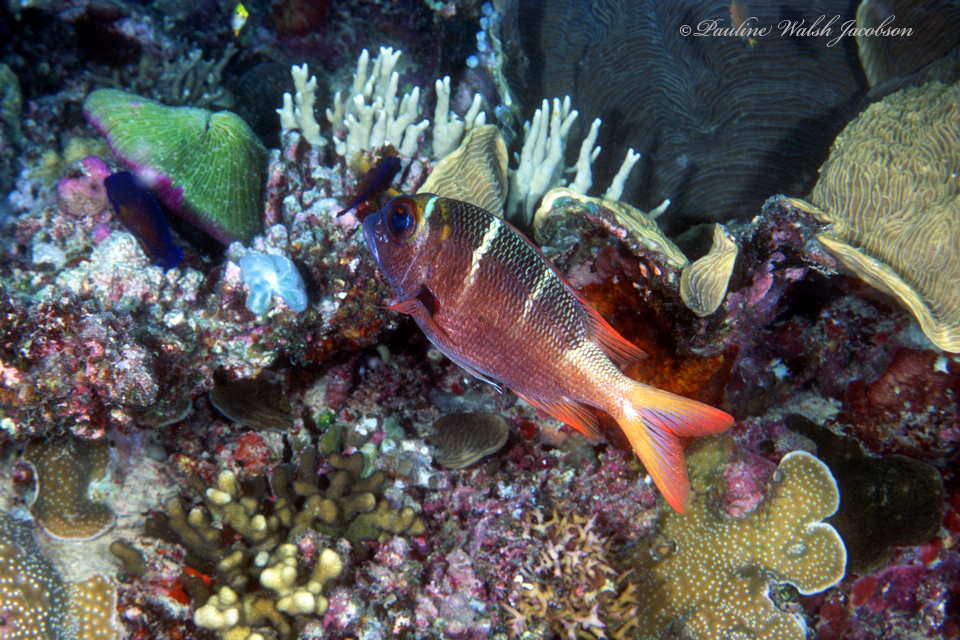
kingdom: Animalia
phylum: Chordata
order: Perciformes
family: Lethrinidae
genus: Monotaxis
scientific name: Monotaxis heterodon
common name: Redfin emperor
